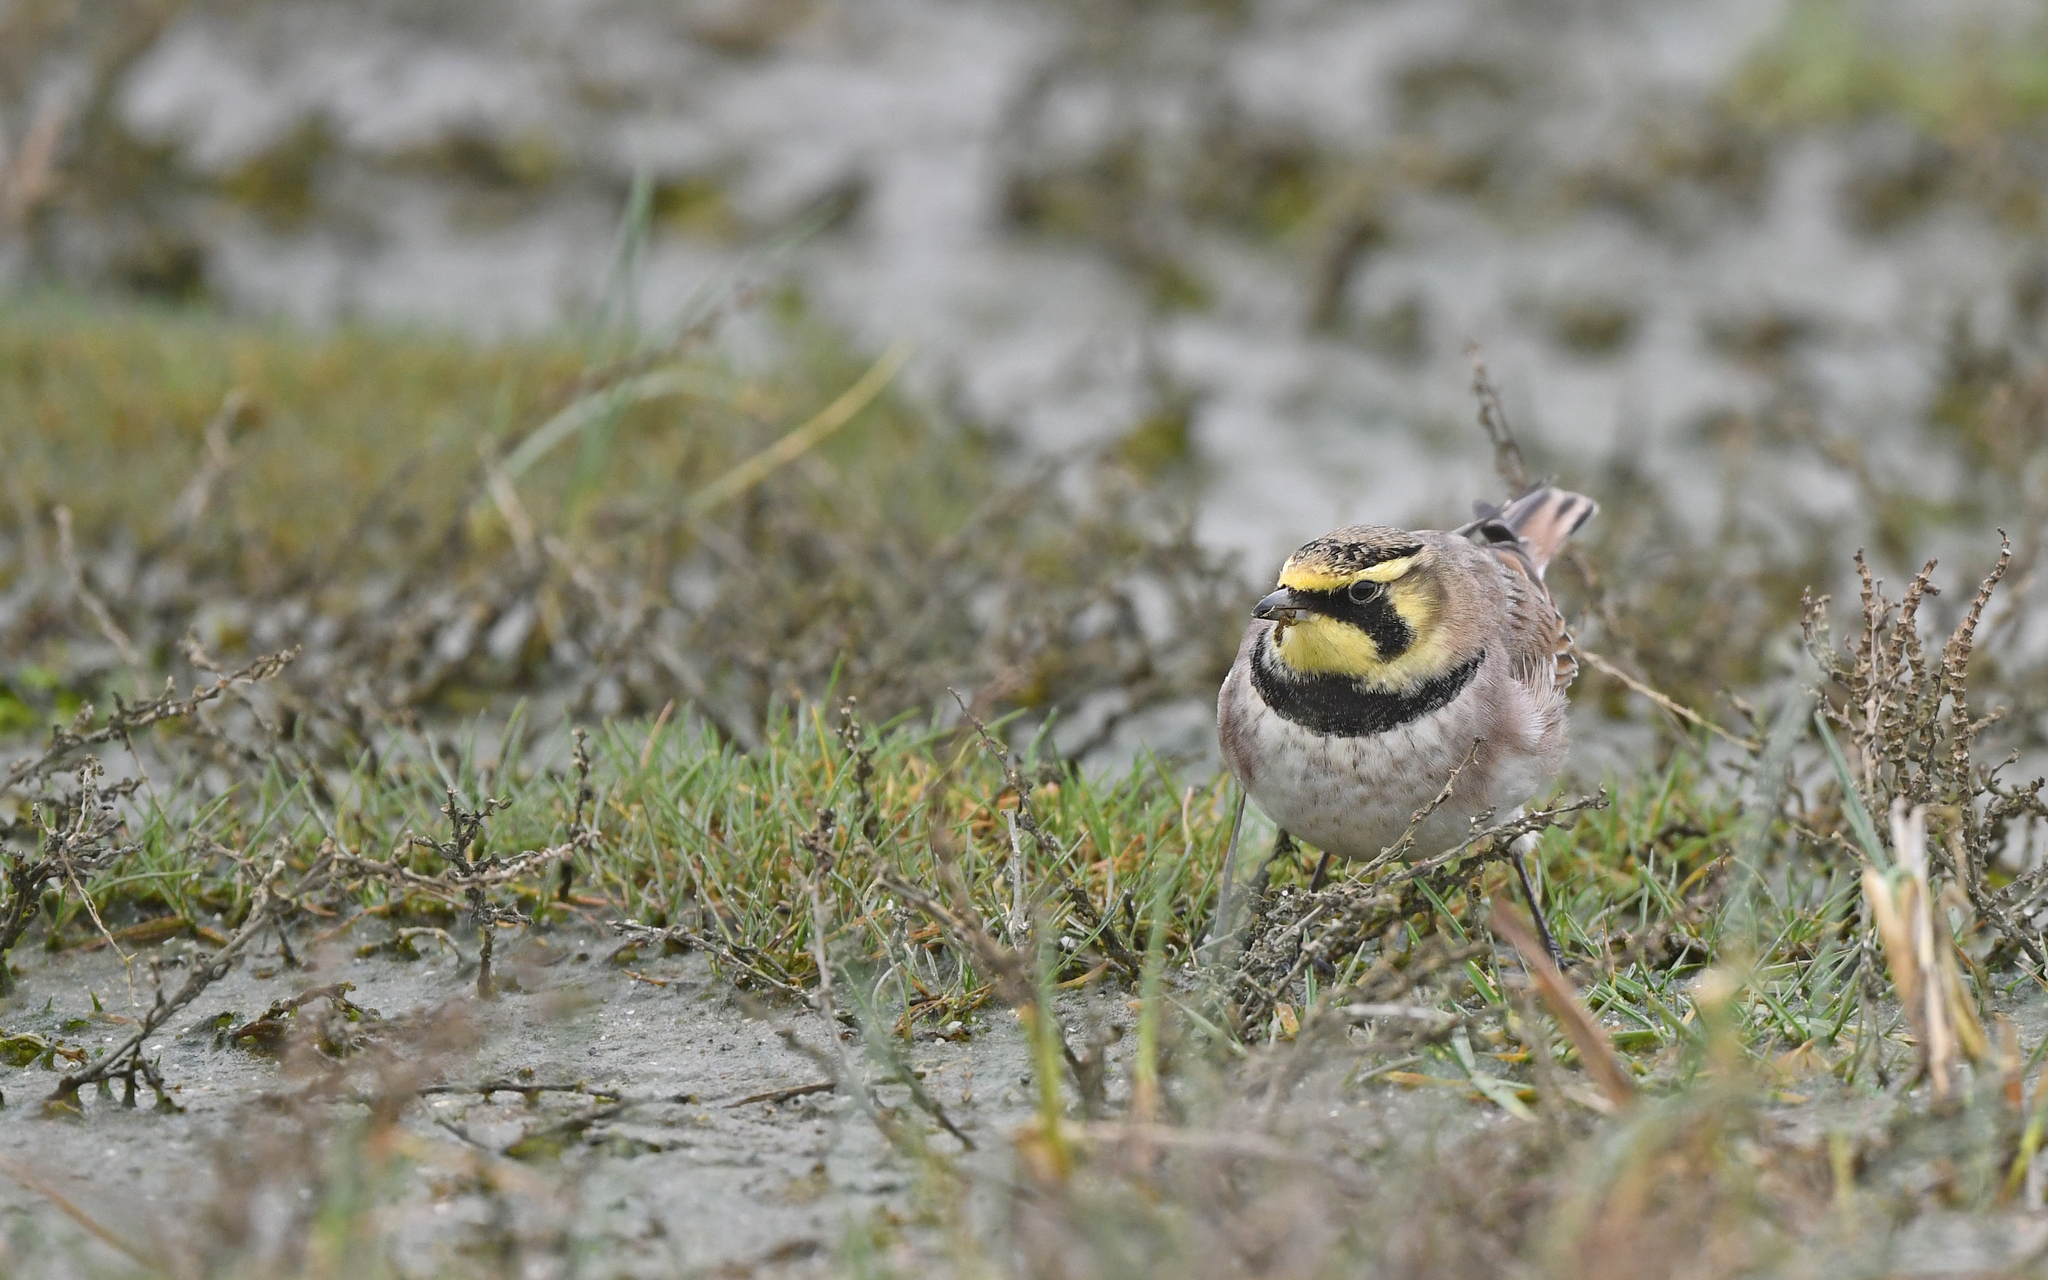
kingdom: Animalia
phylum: Chordata
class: Aves
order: Passeriformes
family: Alaudidae
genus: Eremophila
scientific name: Eremophila alpestris
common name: Horned lark
